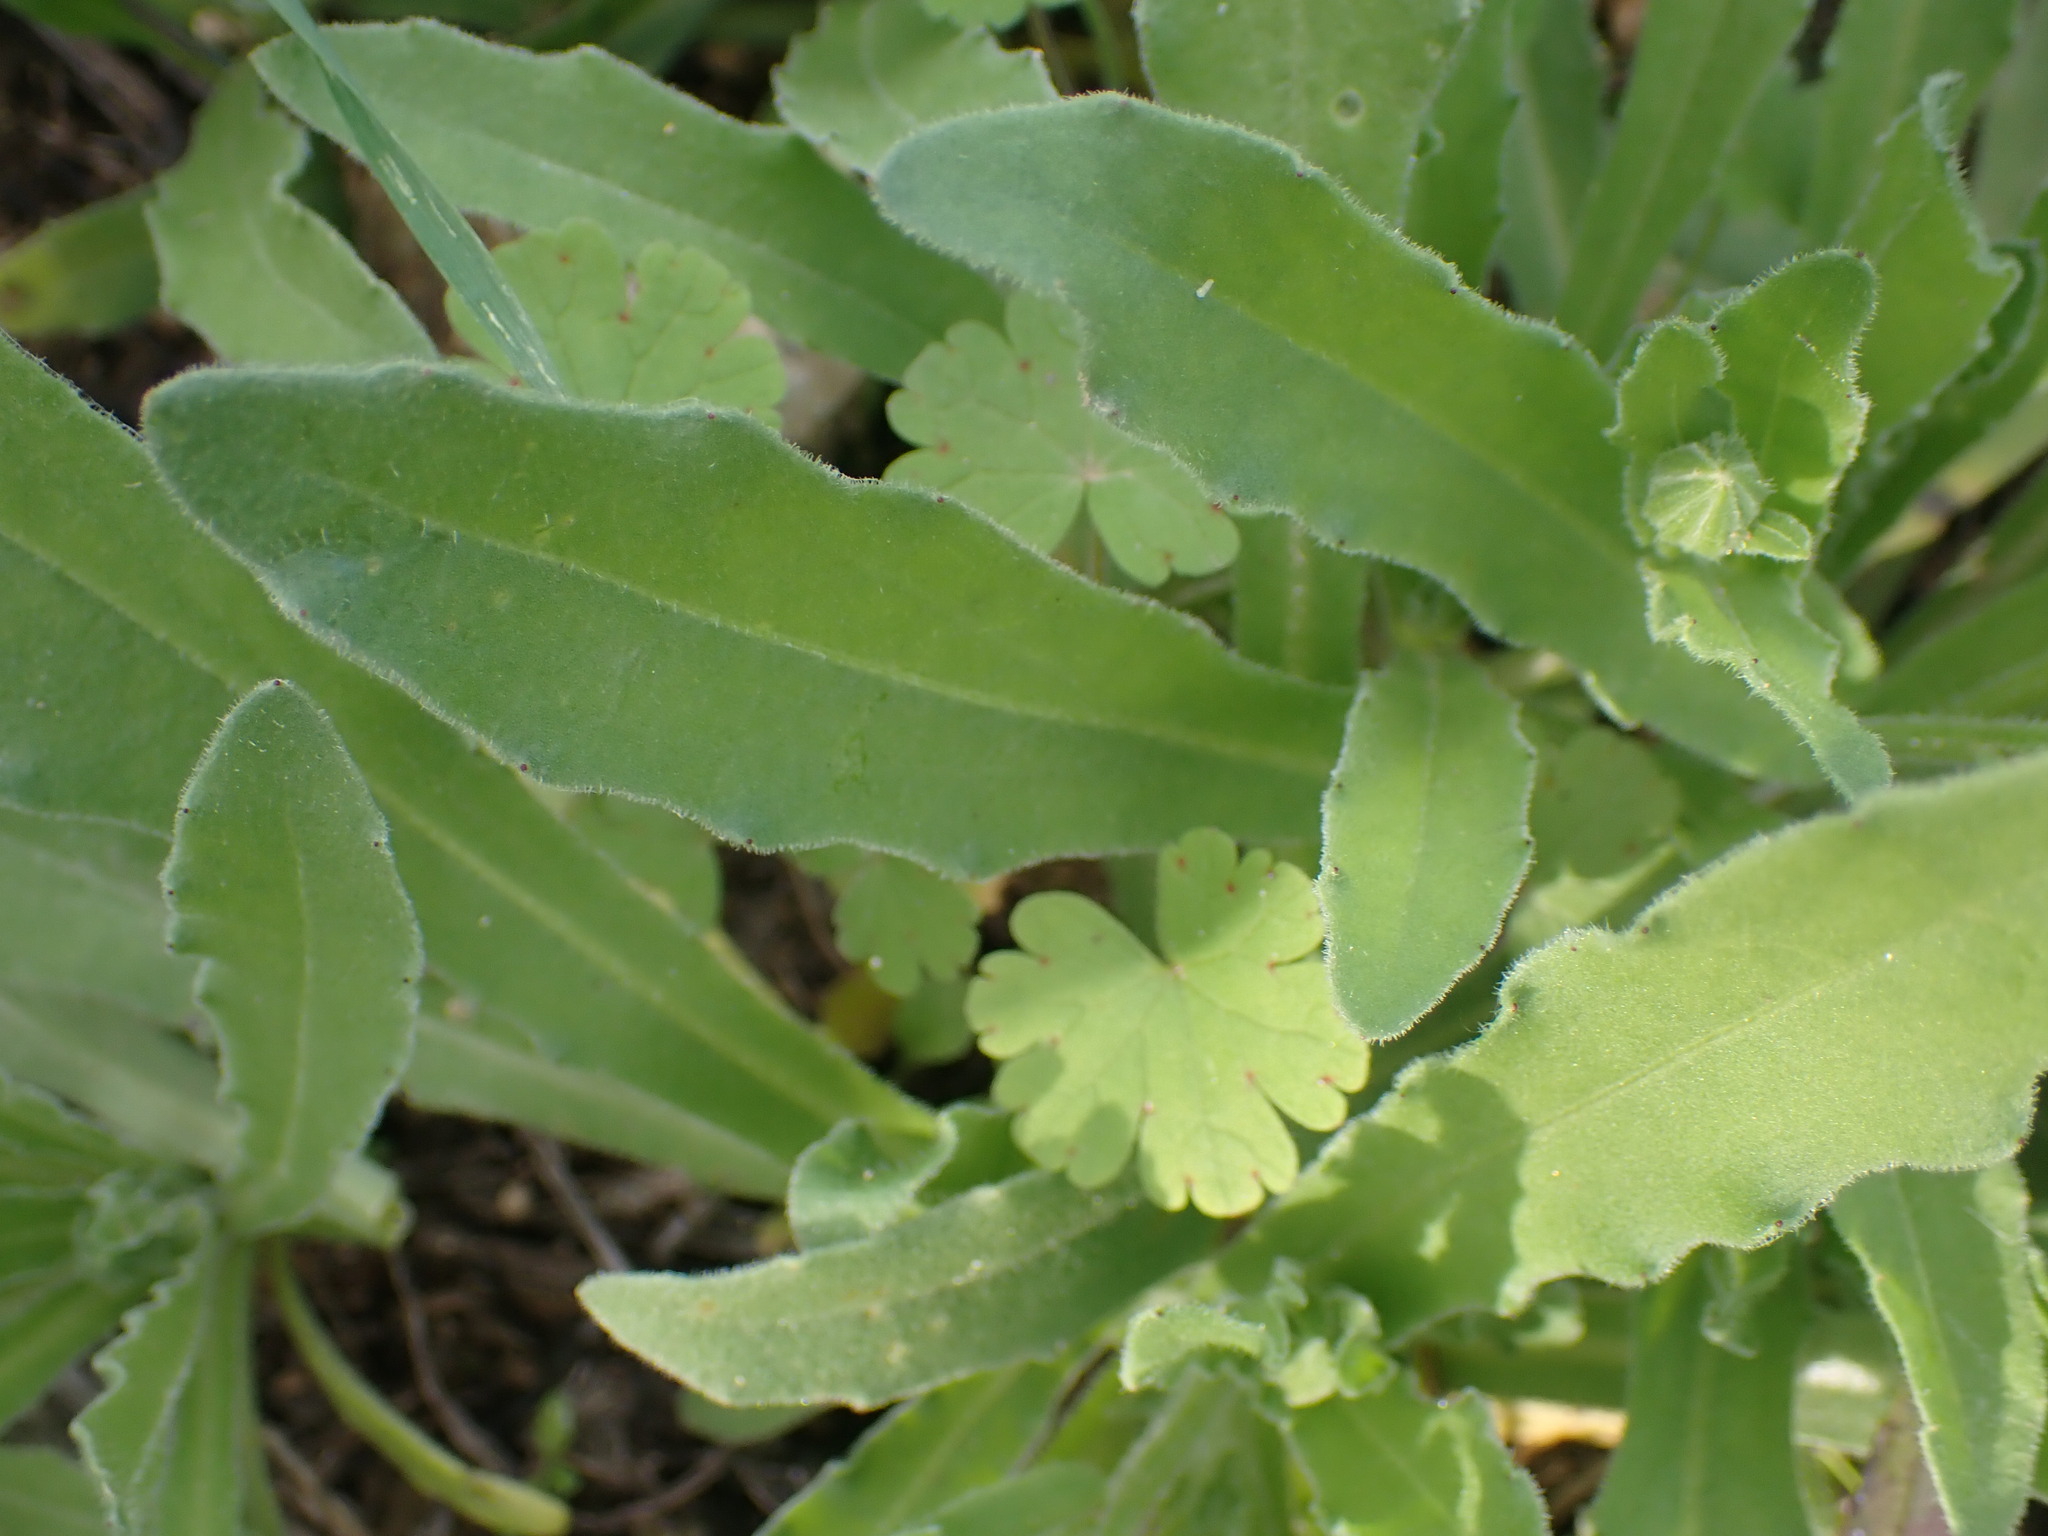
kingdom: Plantae
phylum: Tracheophyta
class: Magnoliopsida
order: Asterales
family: Asteraceae
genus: Calendula
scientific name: Calendula arvensis
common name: Field marigold
